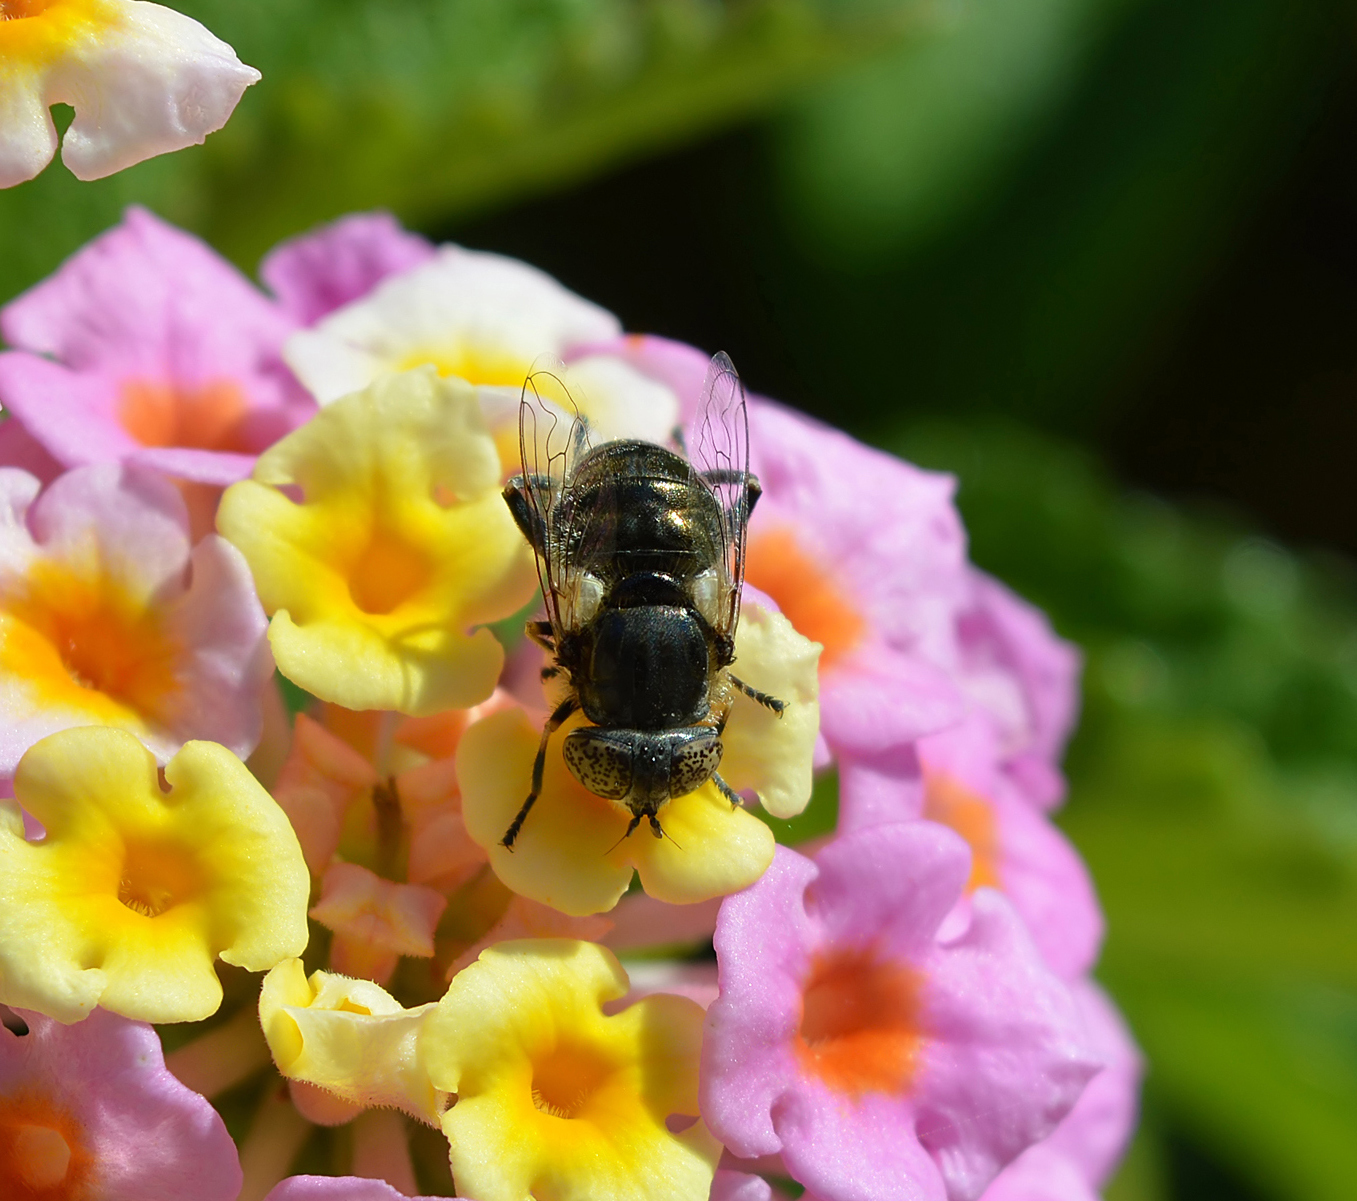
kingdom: Animalia
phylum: Arthropoda
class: Insecta
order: Diptera
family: Syrphidae
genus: Eristalinus
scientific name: Eristalinus aeneus
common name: Syrphid fly
